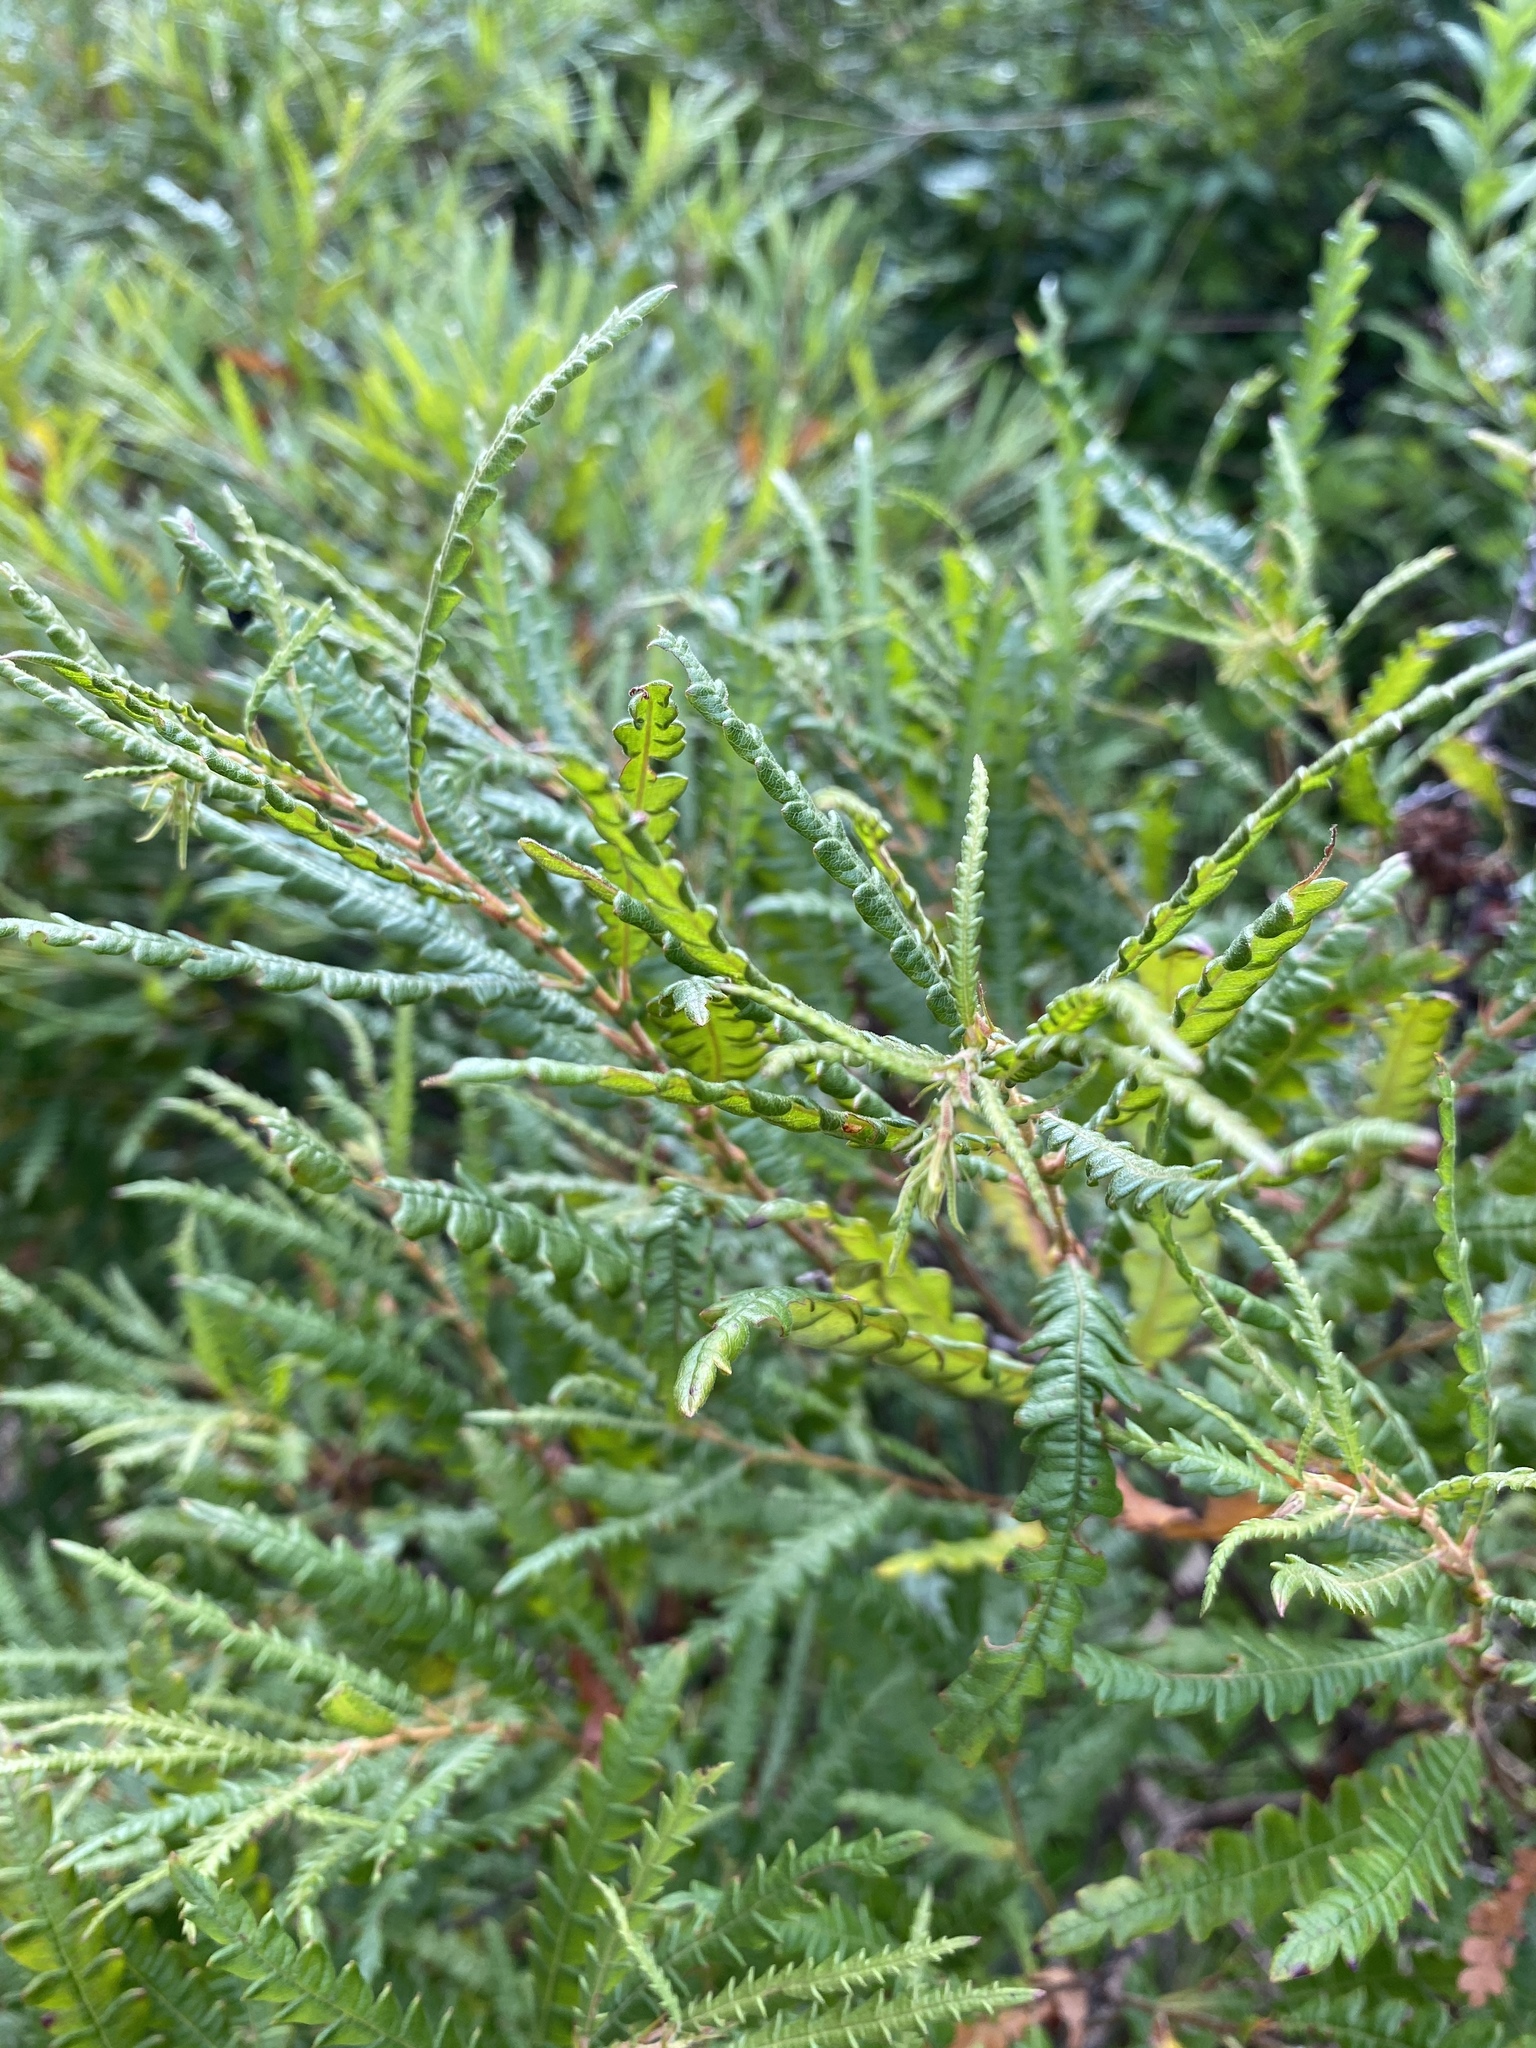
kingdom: Plantae
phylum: Tracheophyta
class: Magnoliopsida
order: Fagales
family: Myricaceae
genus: Comptonia
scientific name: Comptonia peregrina
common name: Sweet-fern
